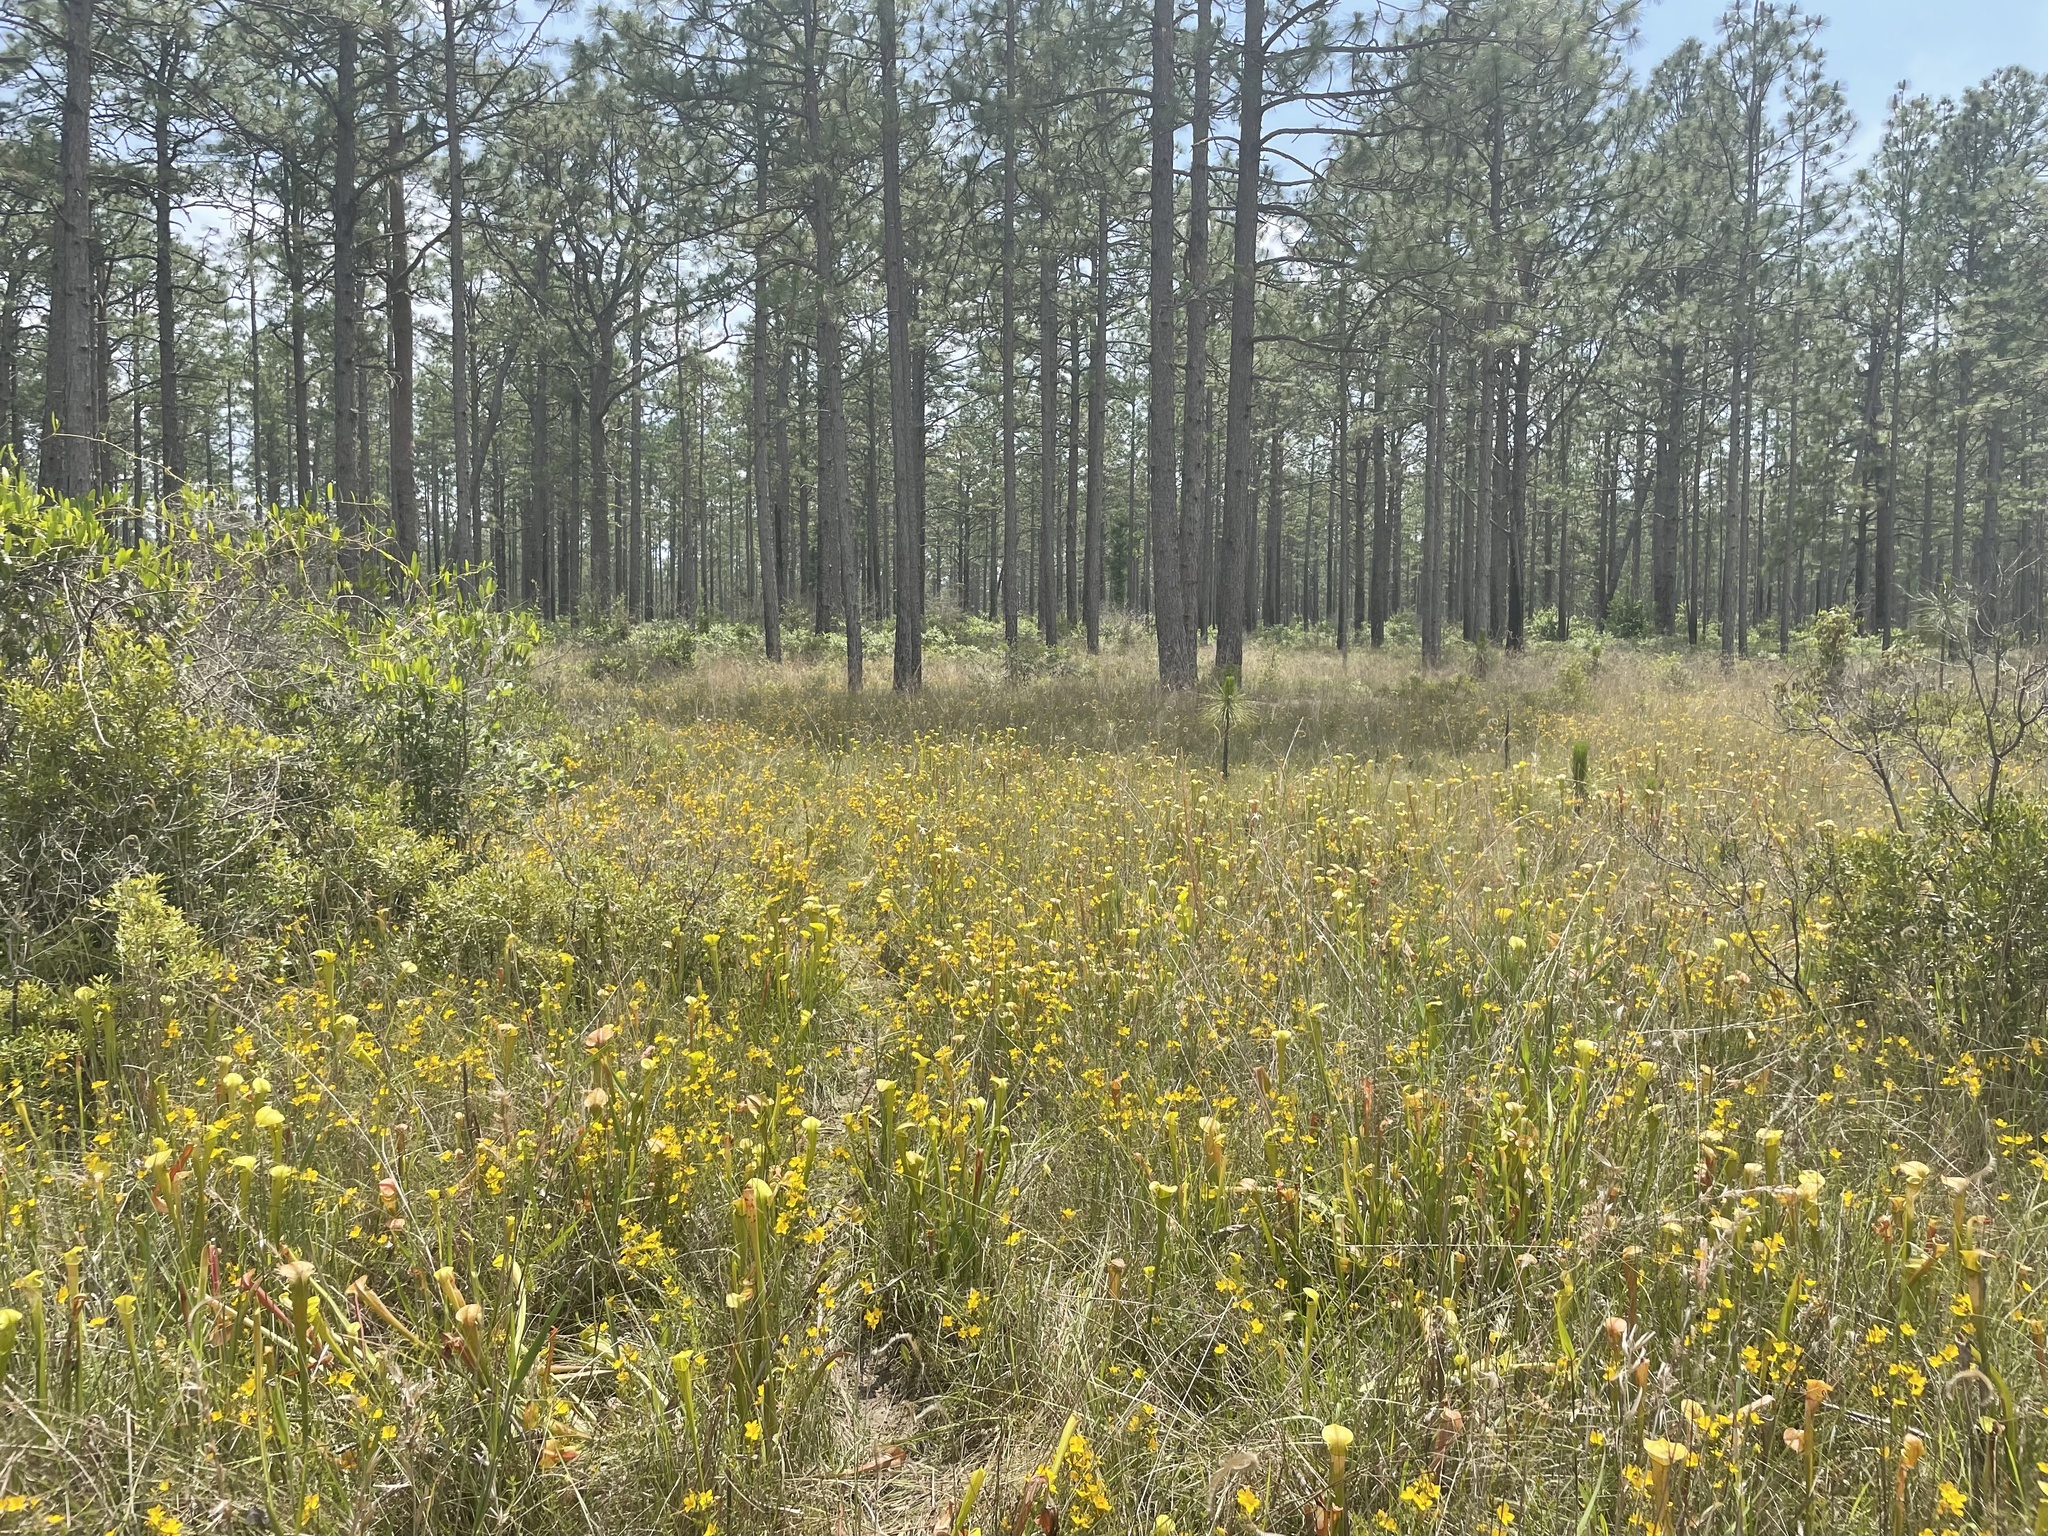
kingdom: Plantae
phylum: Tracheophyta
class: Magnoliopsida
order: Ericales
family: Sarraceniaceae
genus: Sarracenia
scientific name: Sarracenia alata
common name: Yellow trumpets
